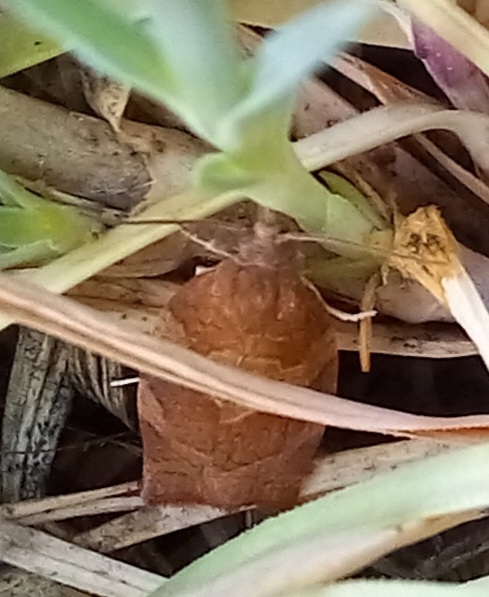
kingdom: Animalia
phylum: Arthropoda
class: Insecta
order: Lepidoptera
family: Tortricidae
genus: Pandemis
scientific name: Pandemis heparana
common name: Dark fruit-tree tortrix
